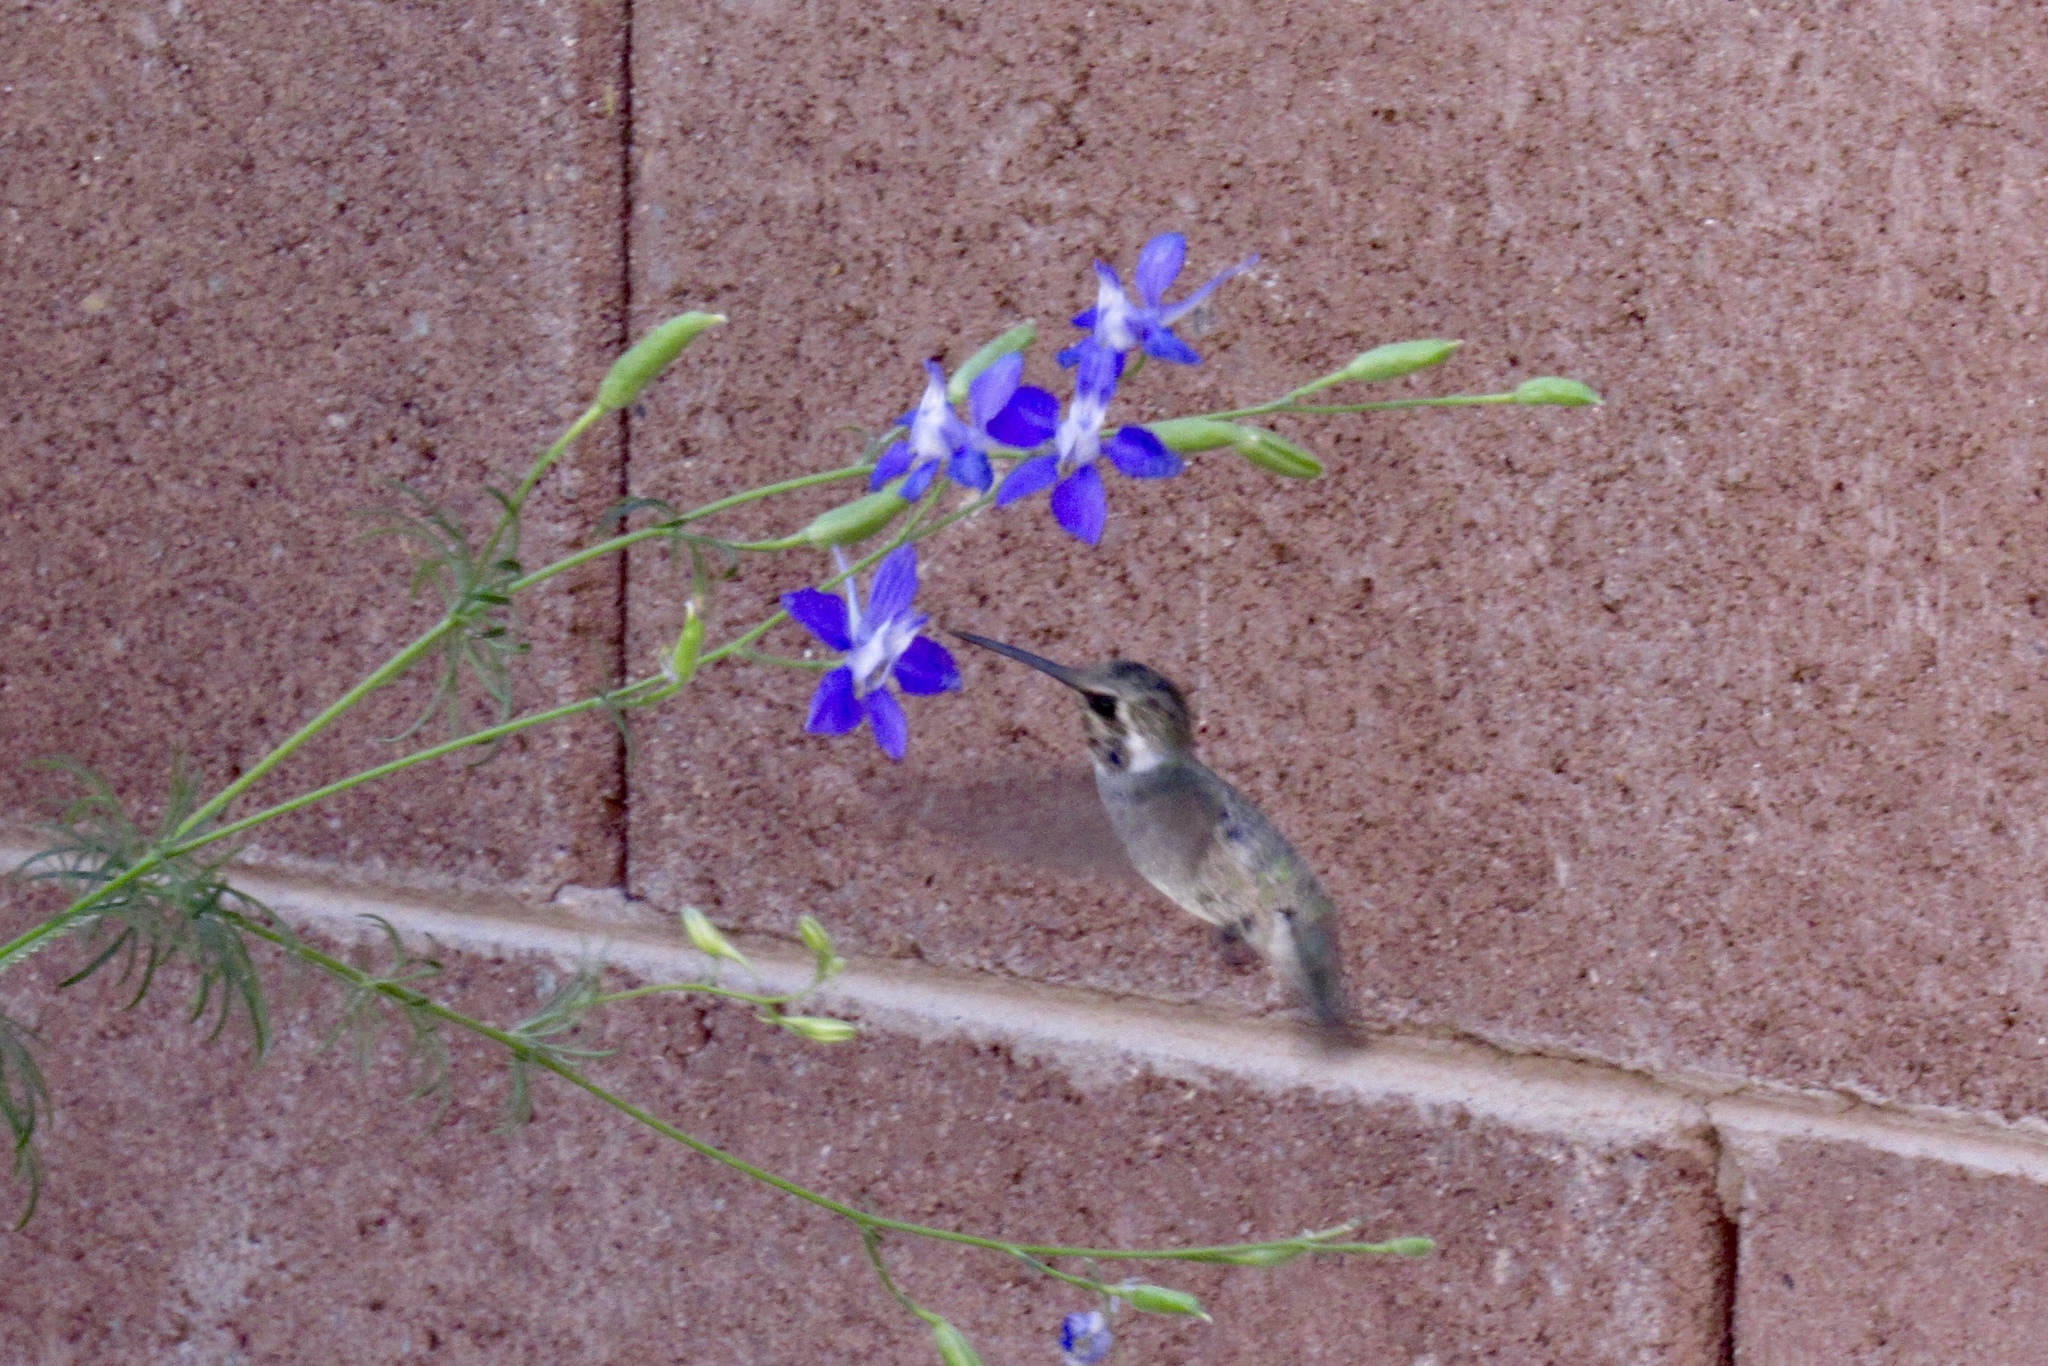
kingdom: Animalia
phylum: Chordata
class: Aves
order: Apodiformes
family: Trochilidae
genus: Calypte
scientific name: Calypte costae
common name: Costa's hummingbird
